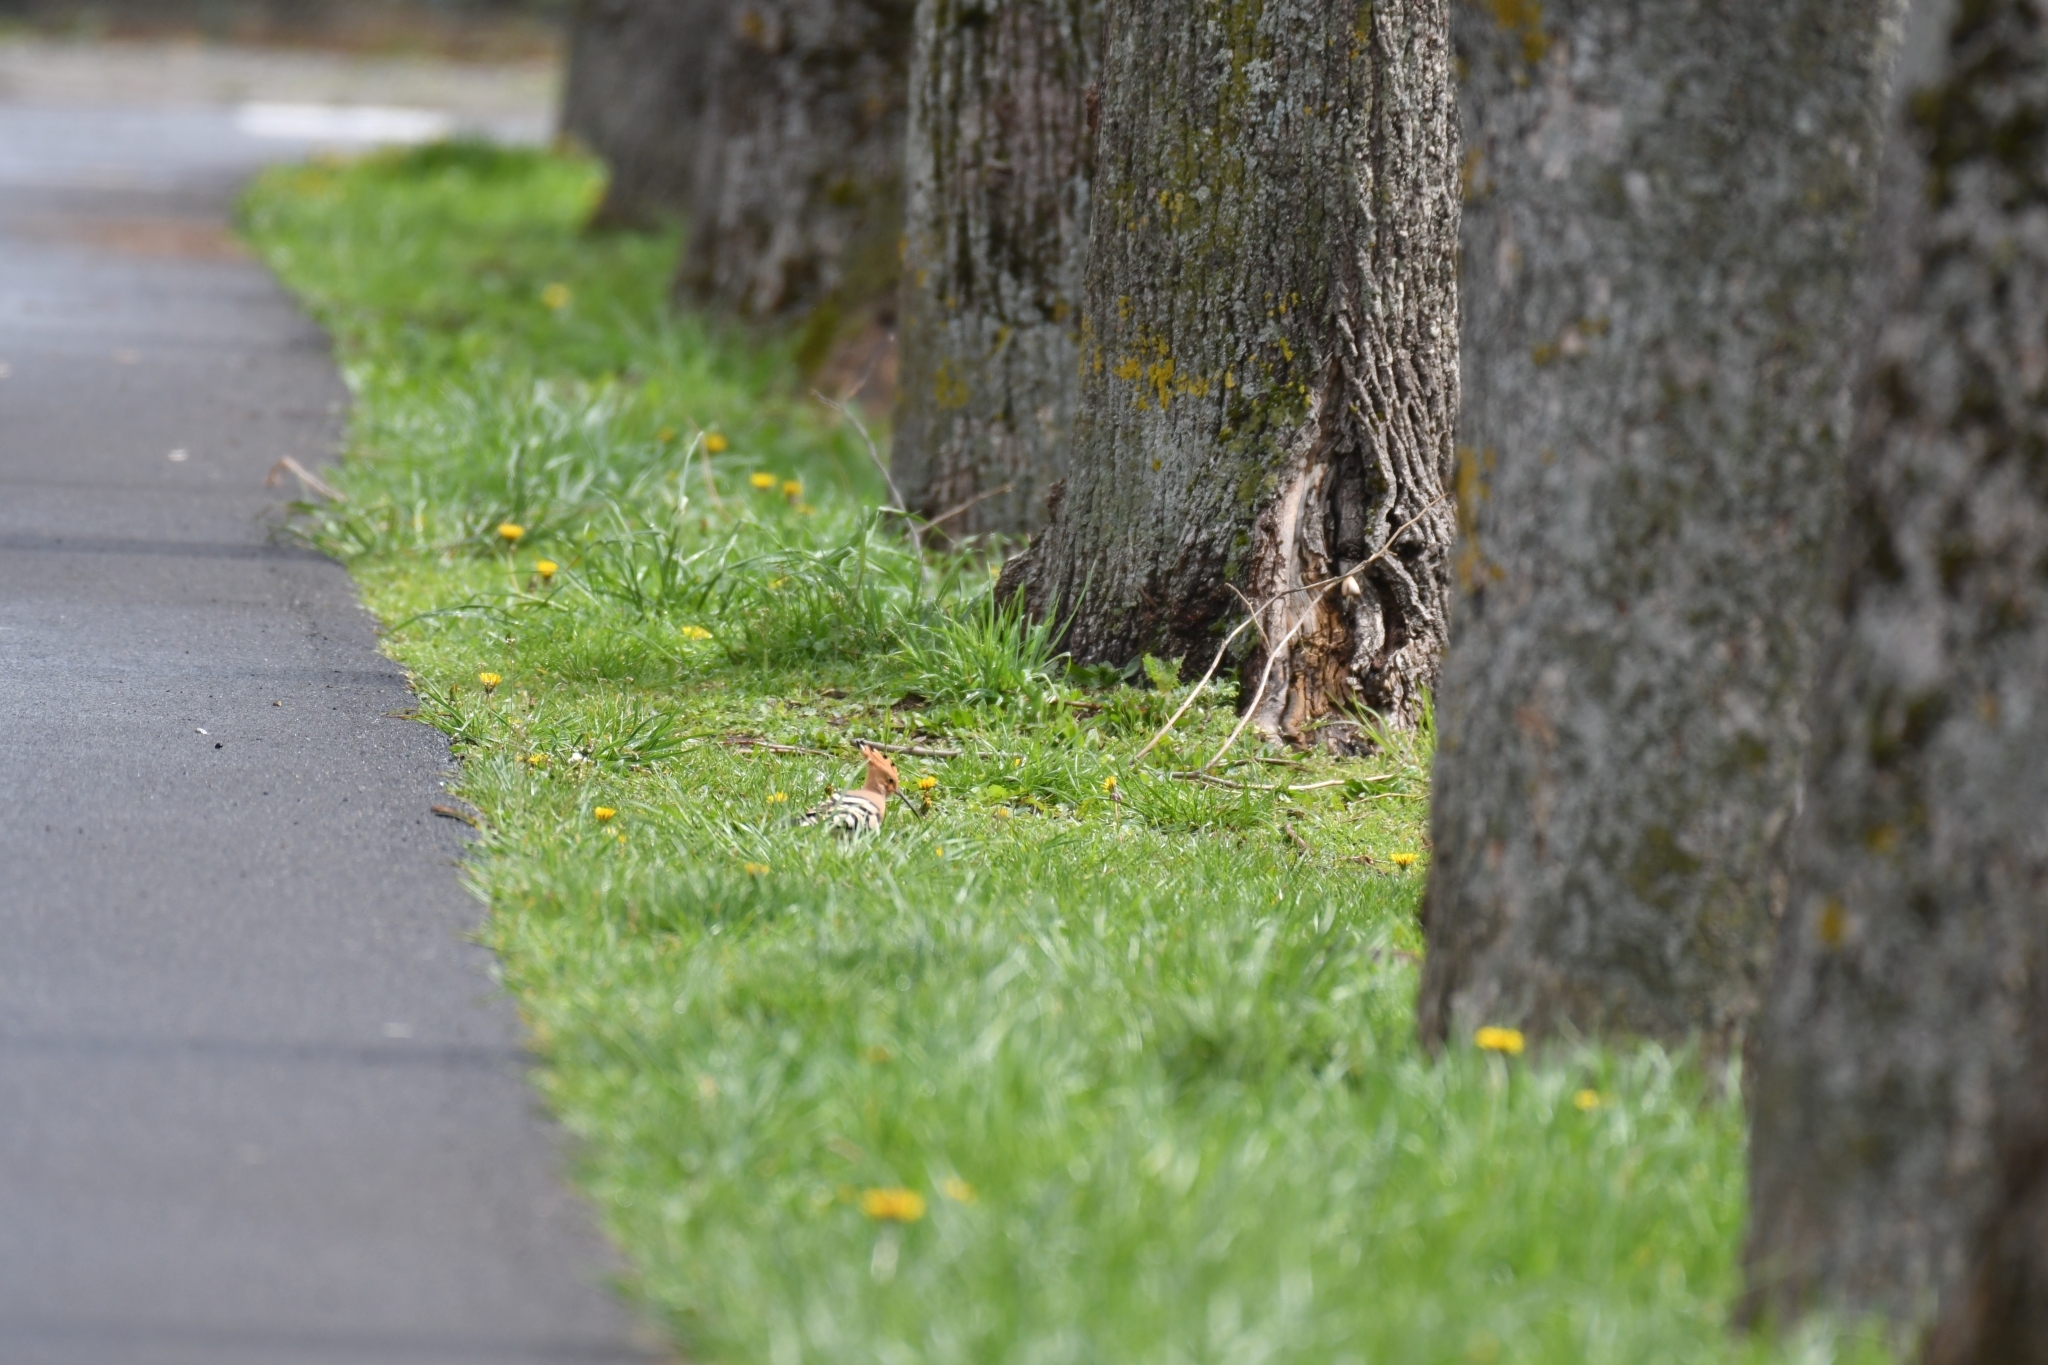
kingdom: Animalia
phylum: Chordata
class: Aves
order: Bucerotiformes
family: Upupidae
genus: Upupa
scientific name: Upupa epops
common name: Eurasian hoopoe
